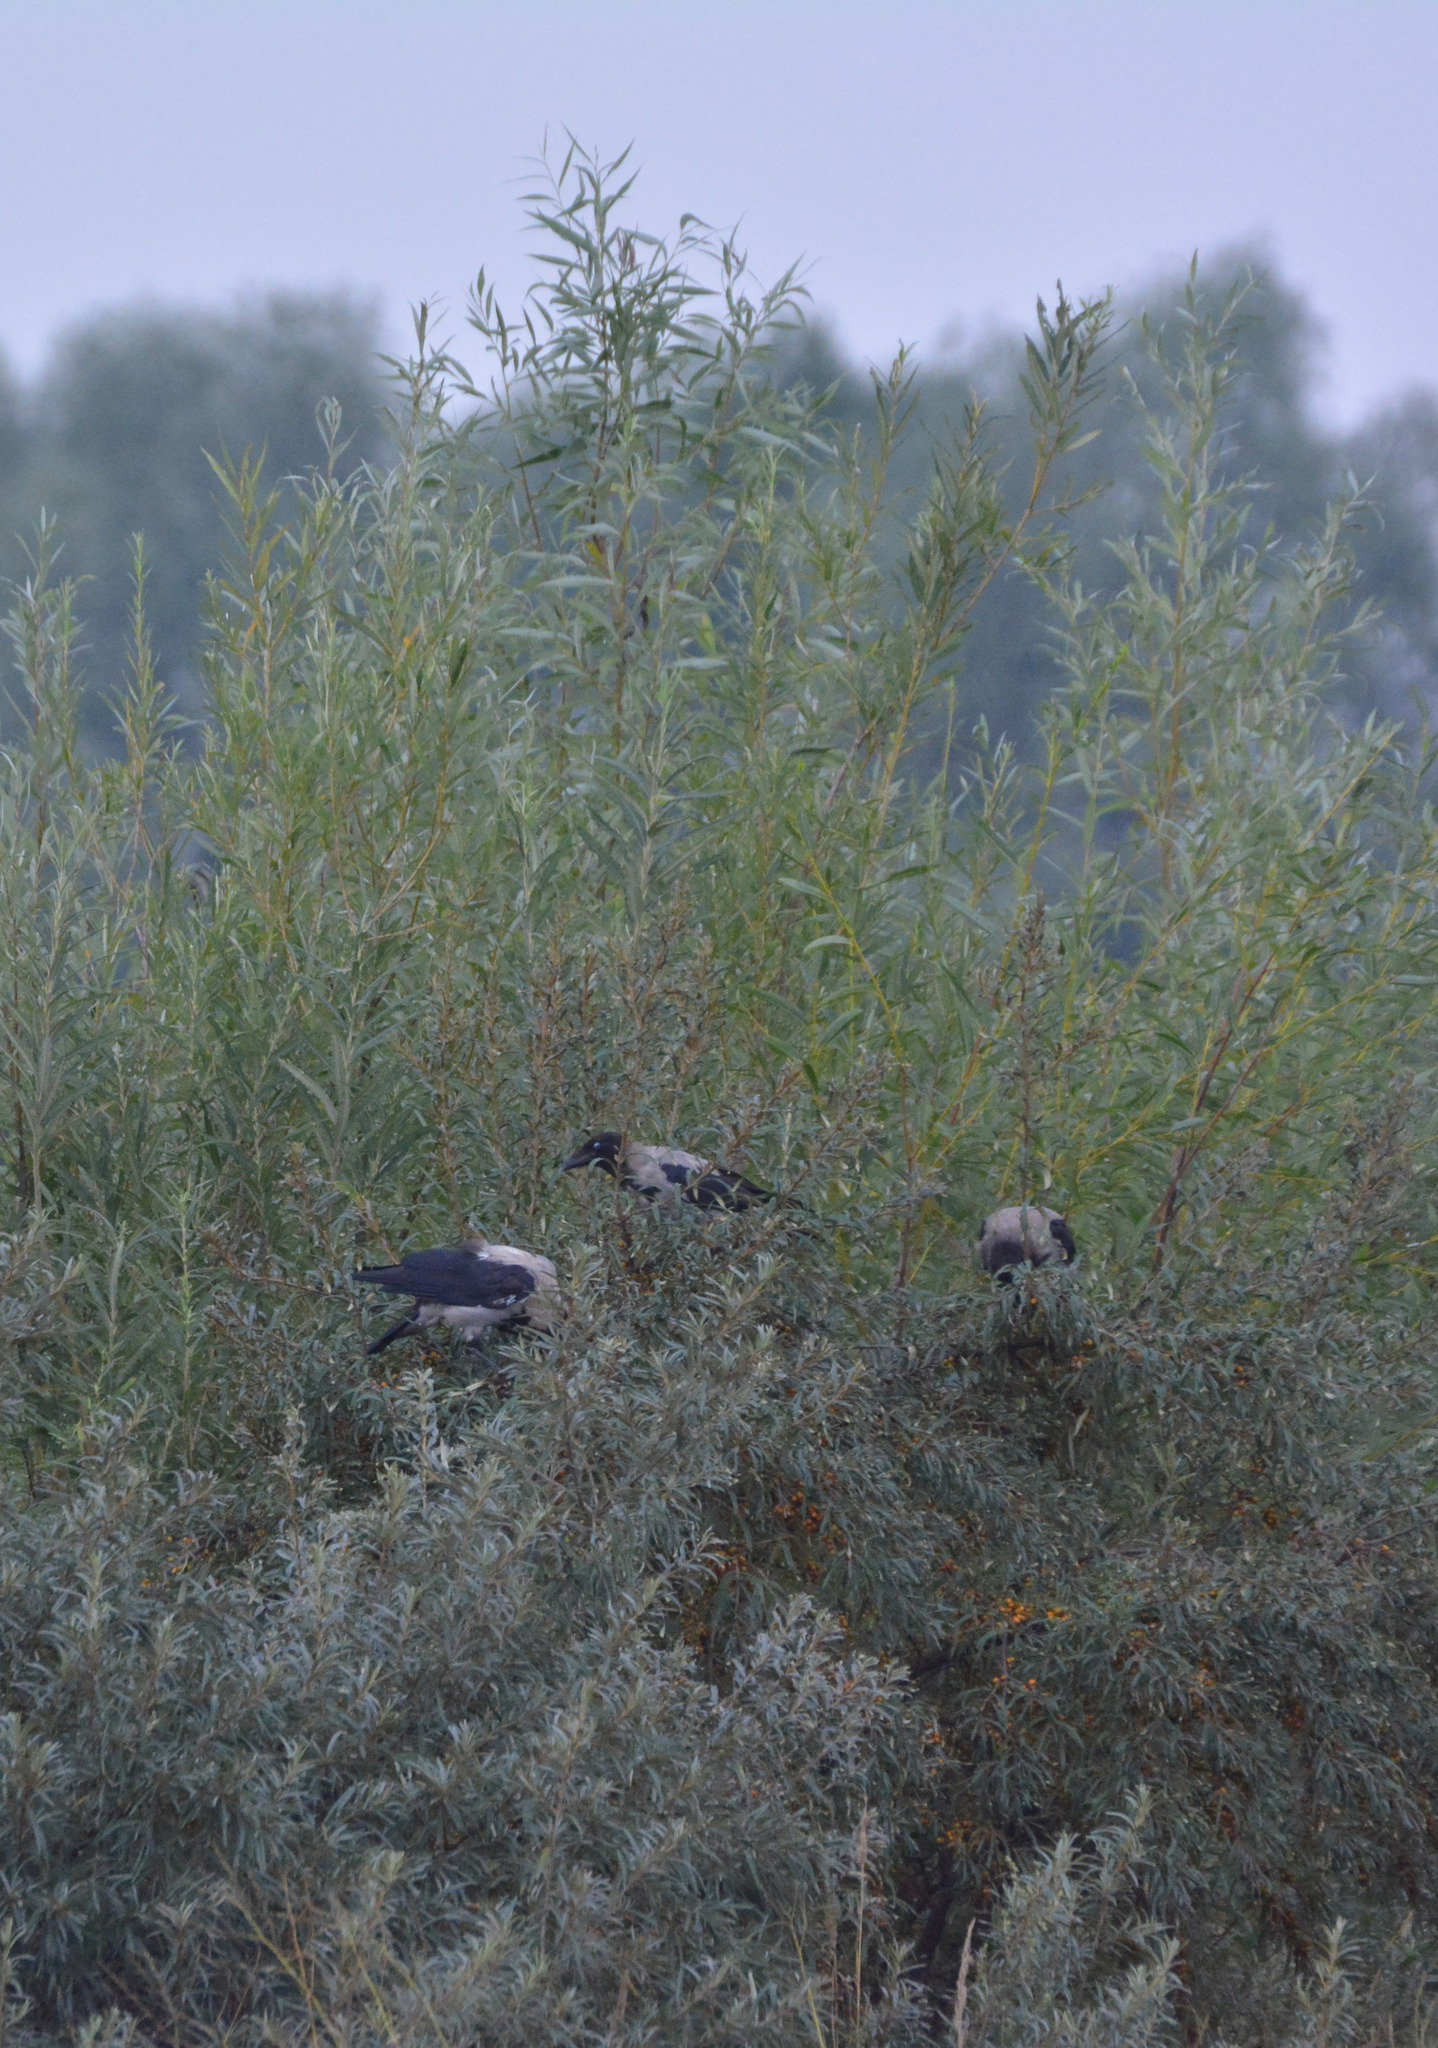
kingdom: Animalia
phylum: Chordata
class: Aves
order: Passeriformes
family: Corvidae
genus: Corvus
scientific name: Corvus cornix
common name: Hooded crow
